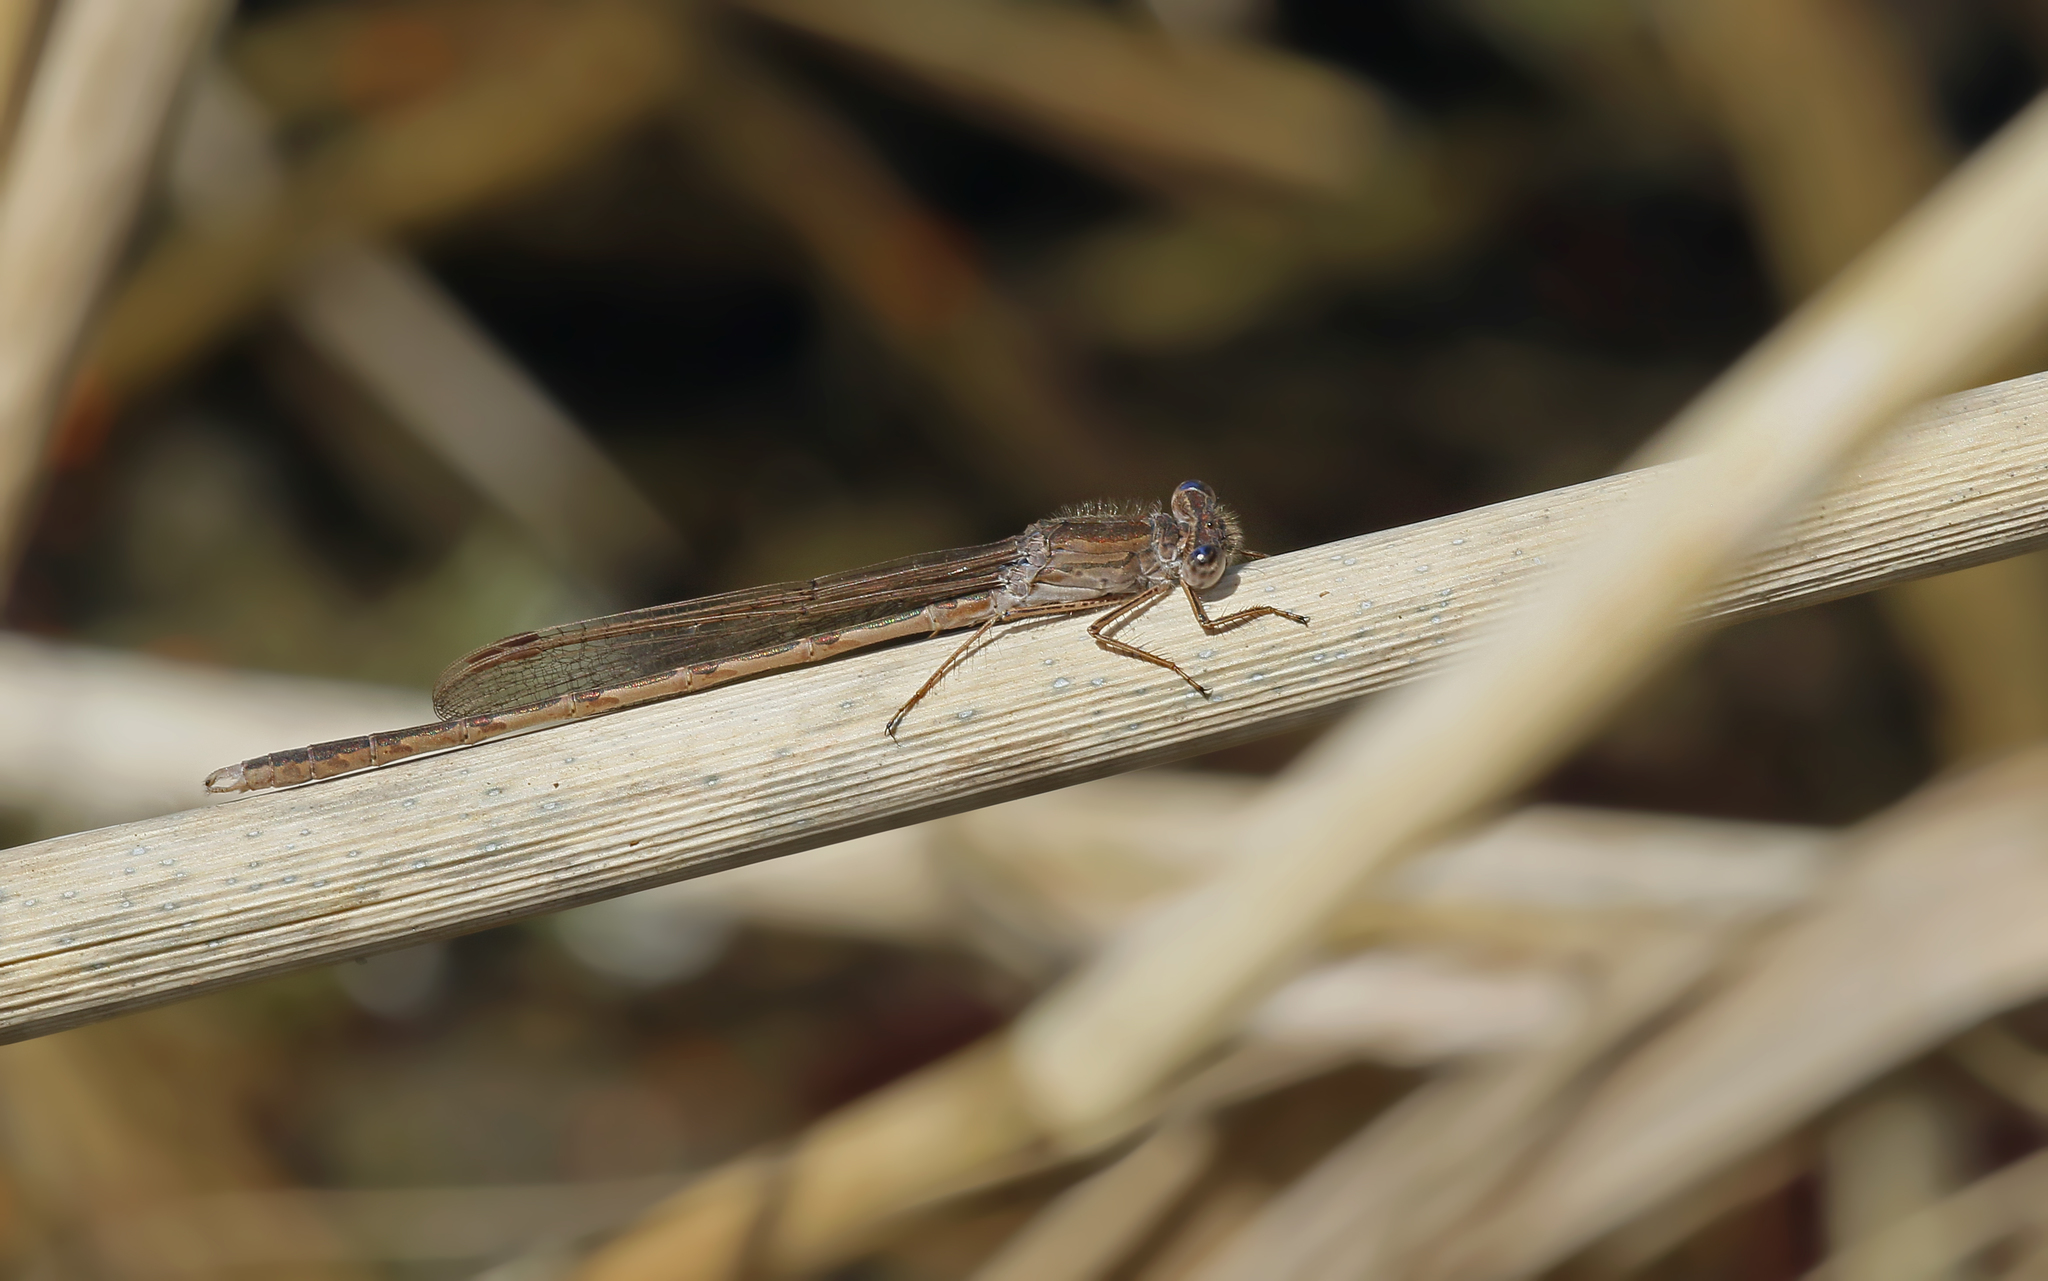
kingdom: Animalia
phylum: Arthropoda
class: Insecta
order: Odonata
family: Lestidae
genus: Sympecma
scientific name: Sympecma fusca
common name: Common winter damsel
